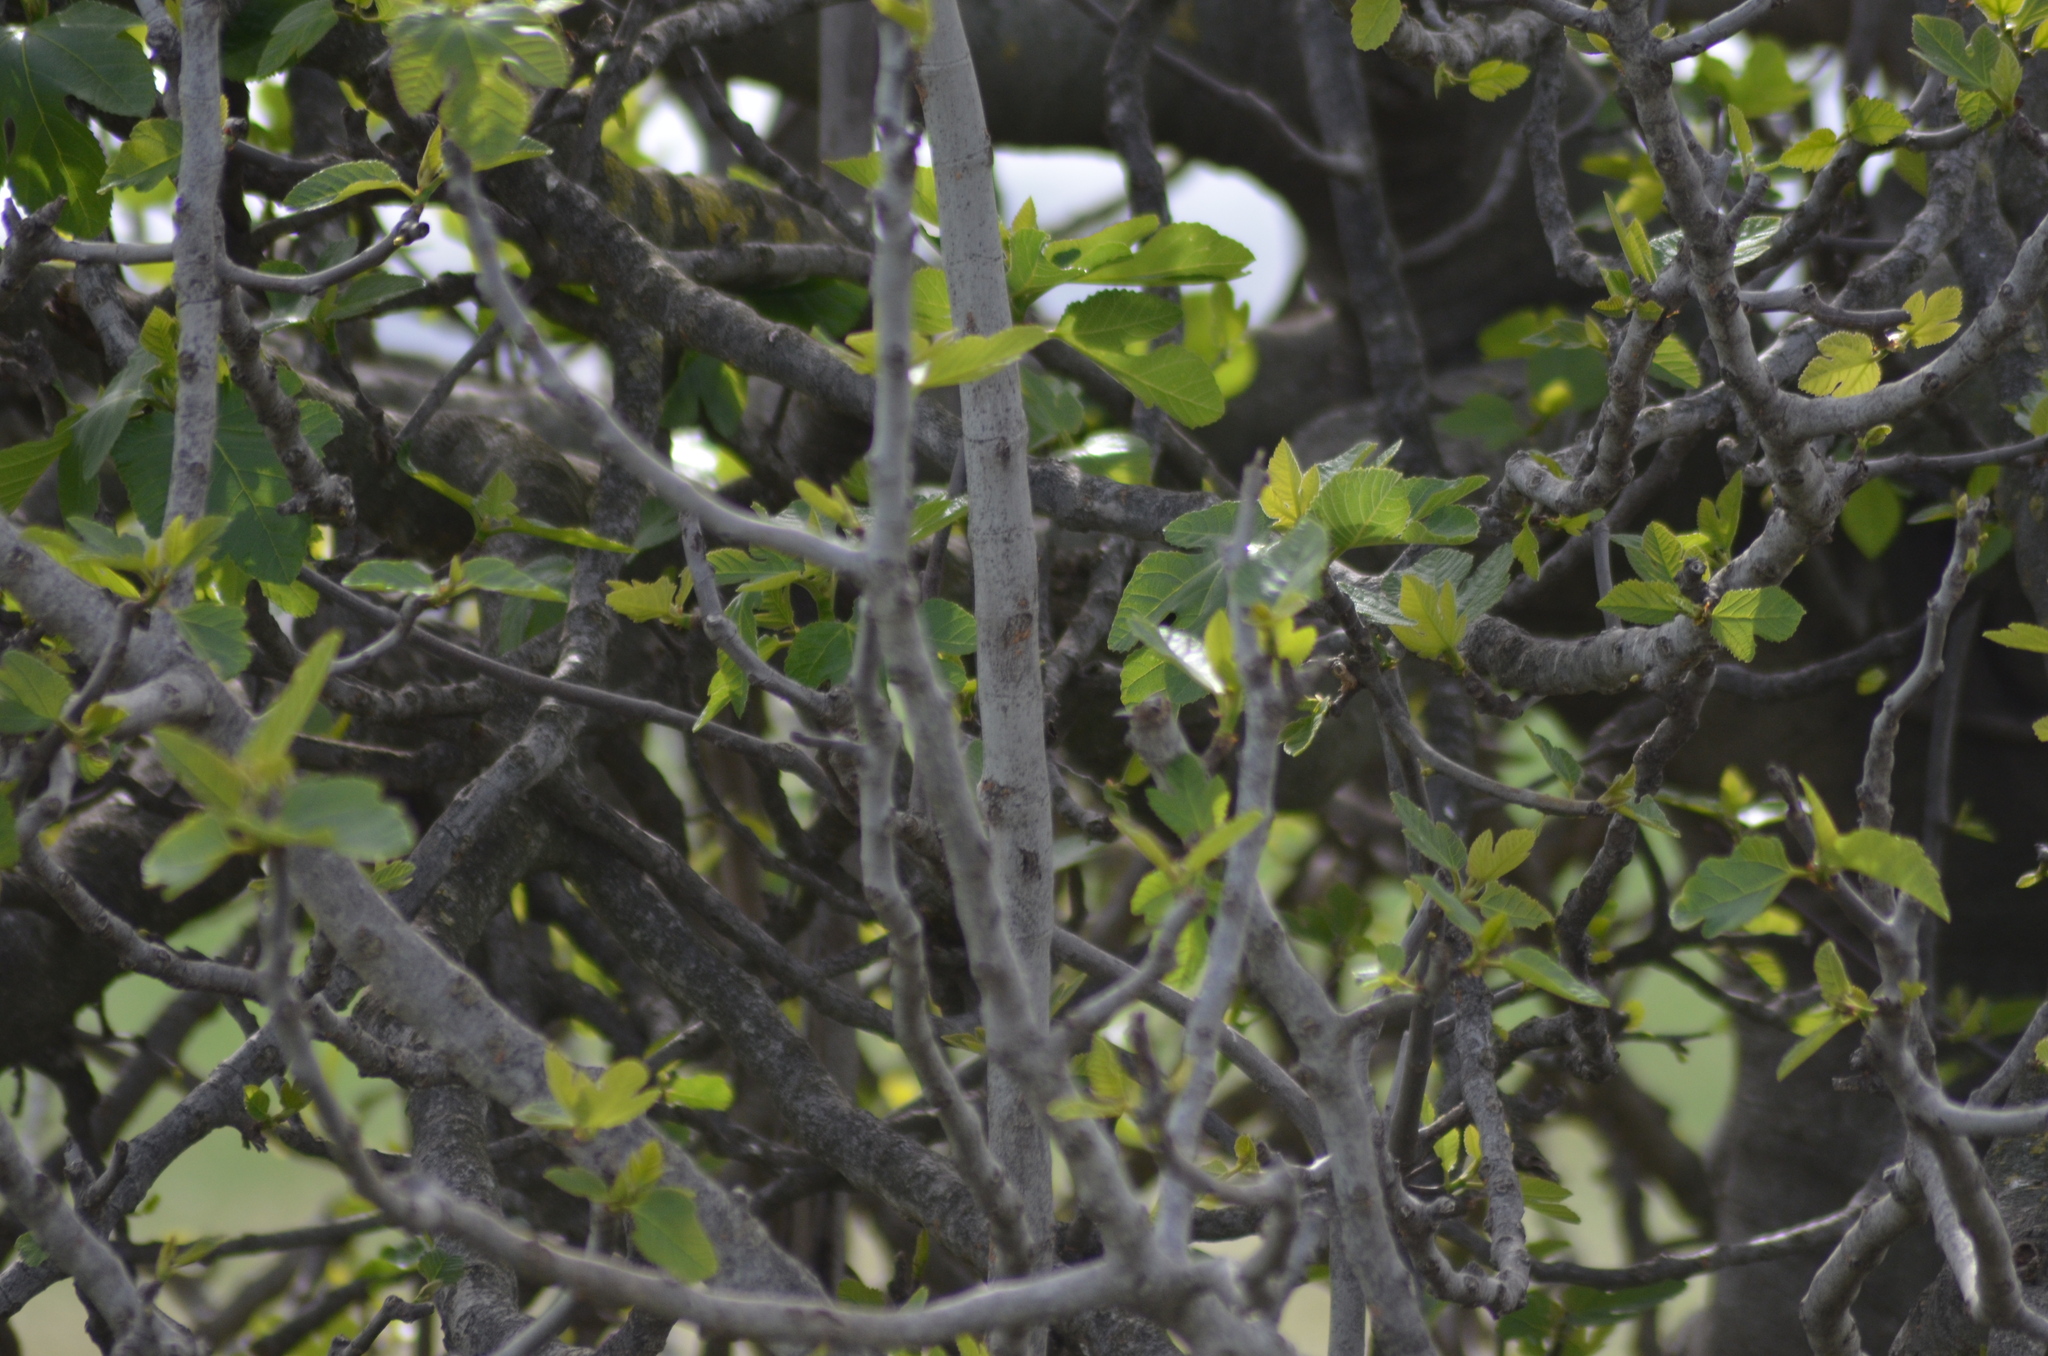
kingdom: Plantae
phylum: Tracheophyta
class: Magnoliopsida
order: Rosales
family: Moraceae
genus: Ficus
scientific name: Ficus carica
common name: Fig
